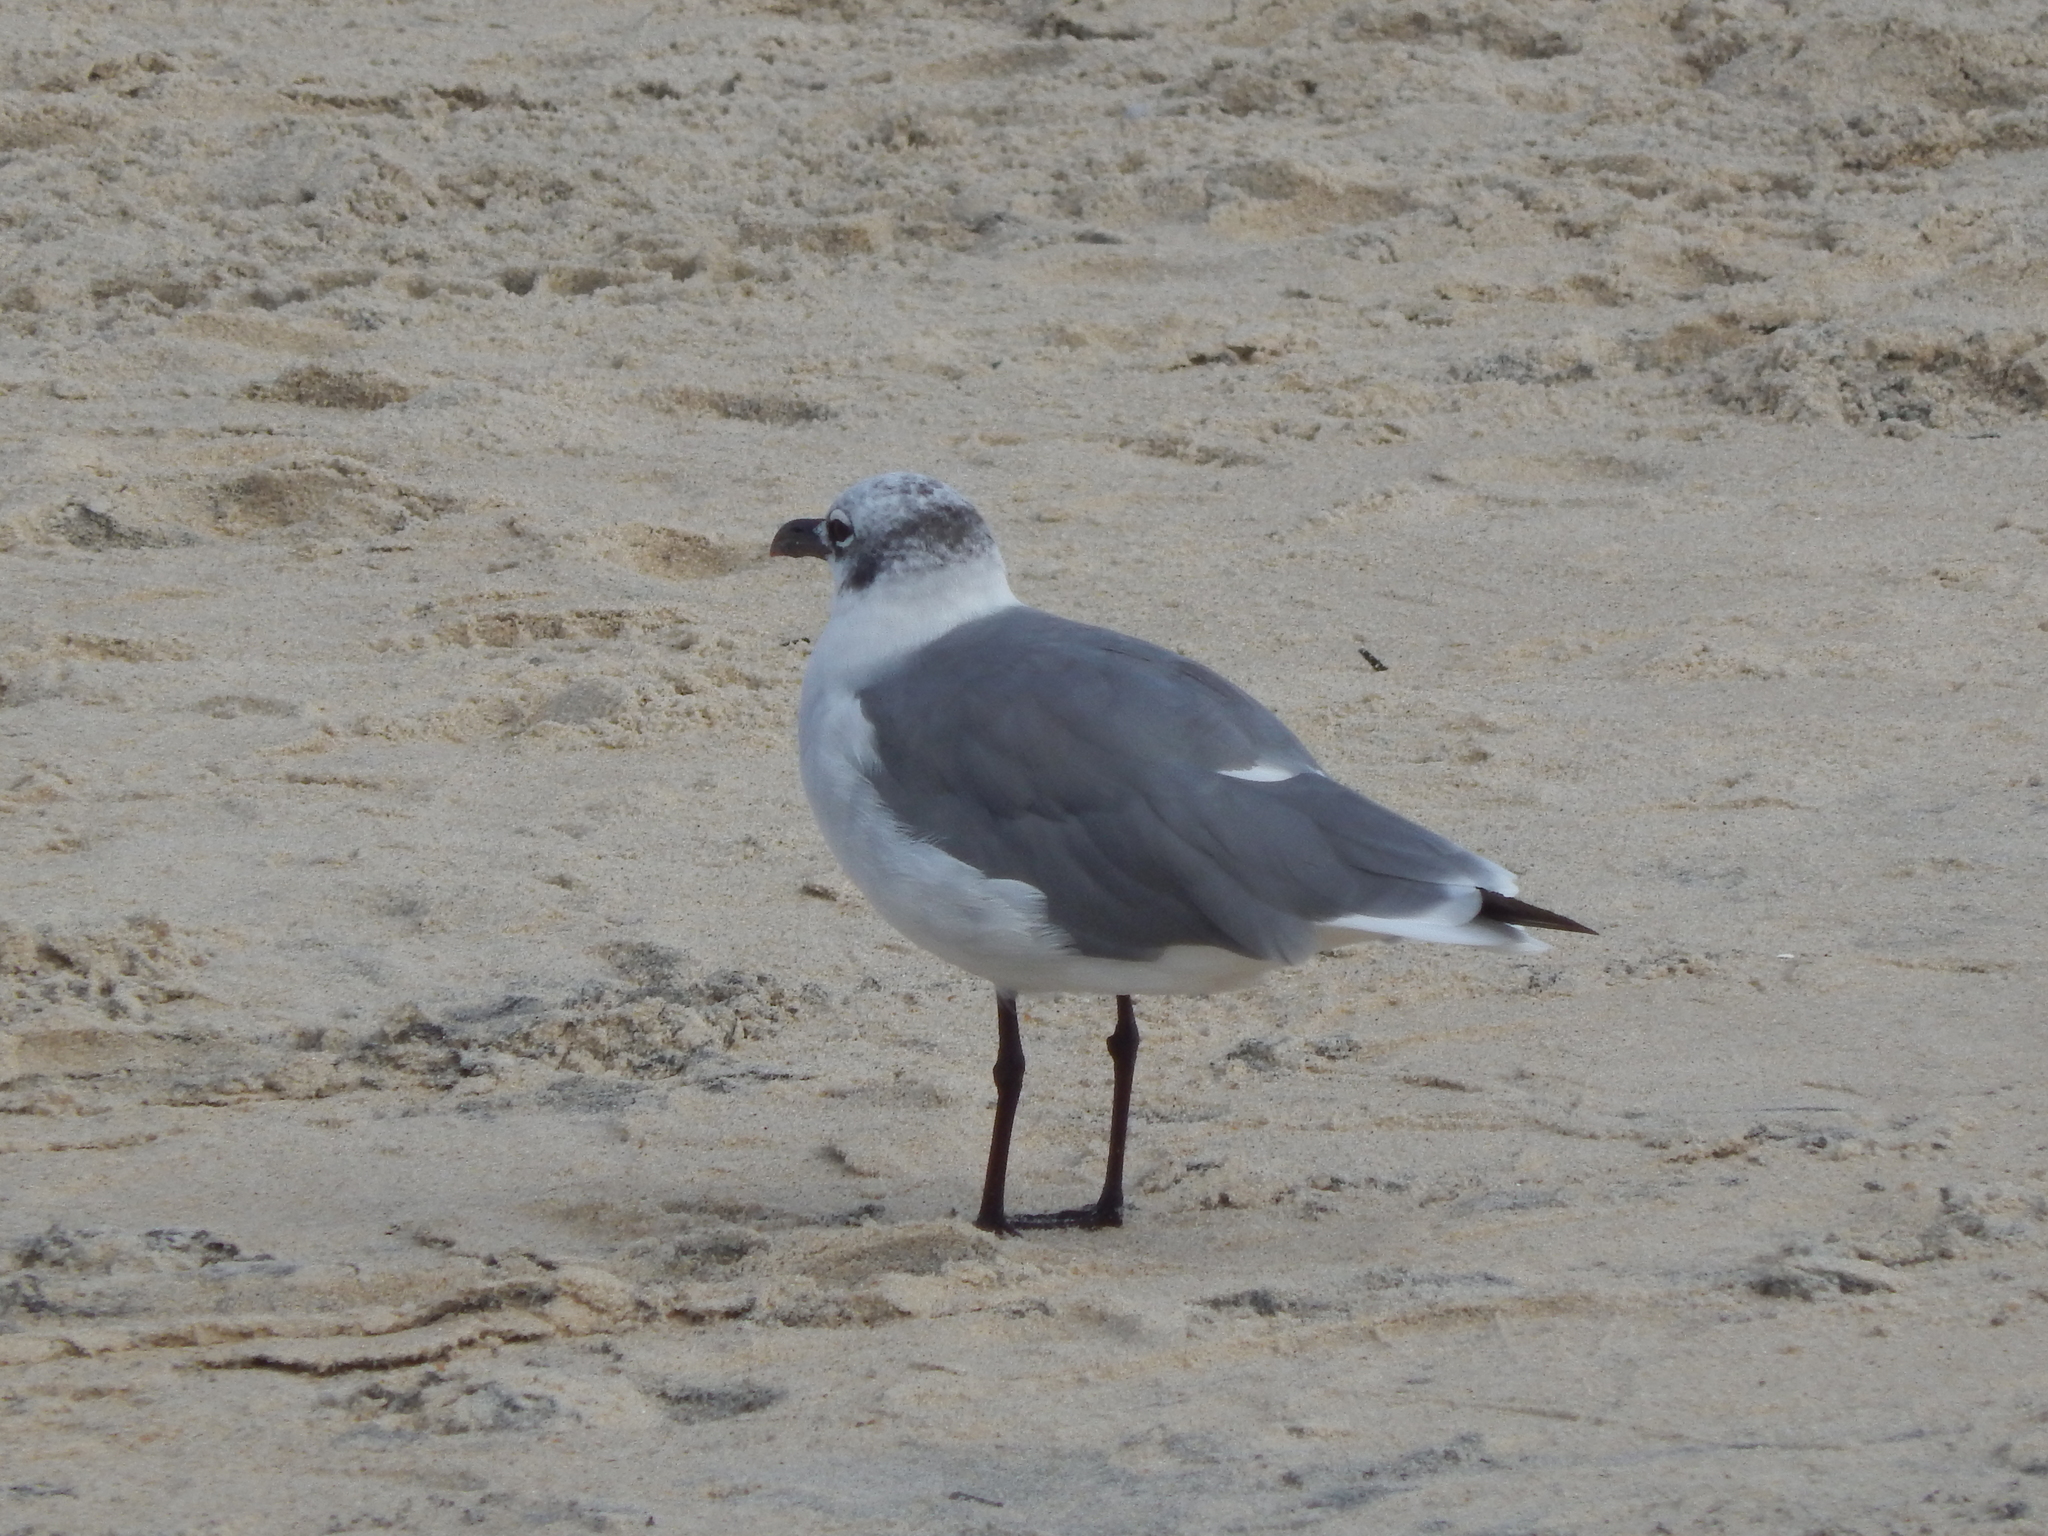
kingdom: Animalia
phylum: Chordata
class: Aves
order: Charadriiformes
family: Laridae
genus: Leucophaeus
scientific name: Leucophaeus atricilla
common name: Laughing gull
